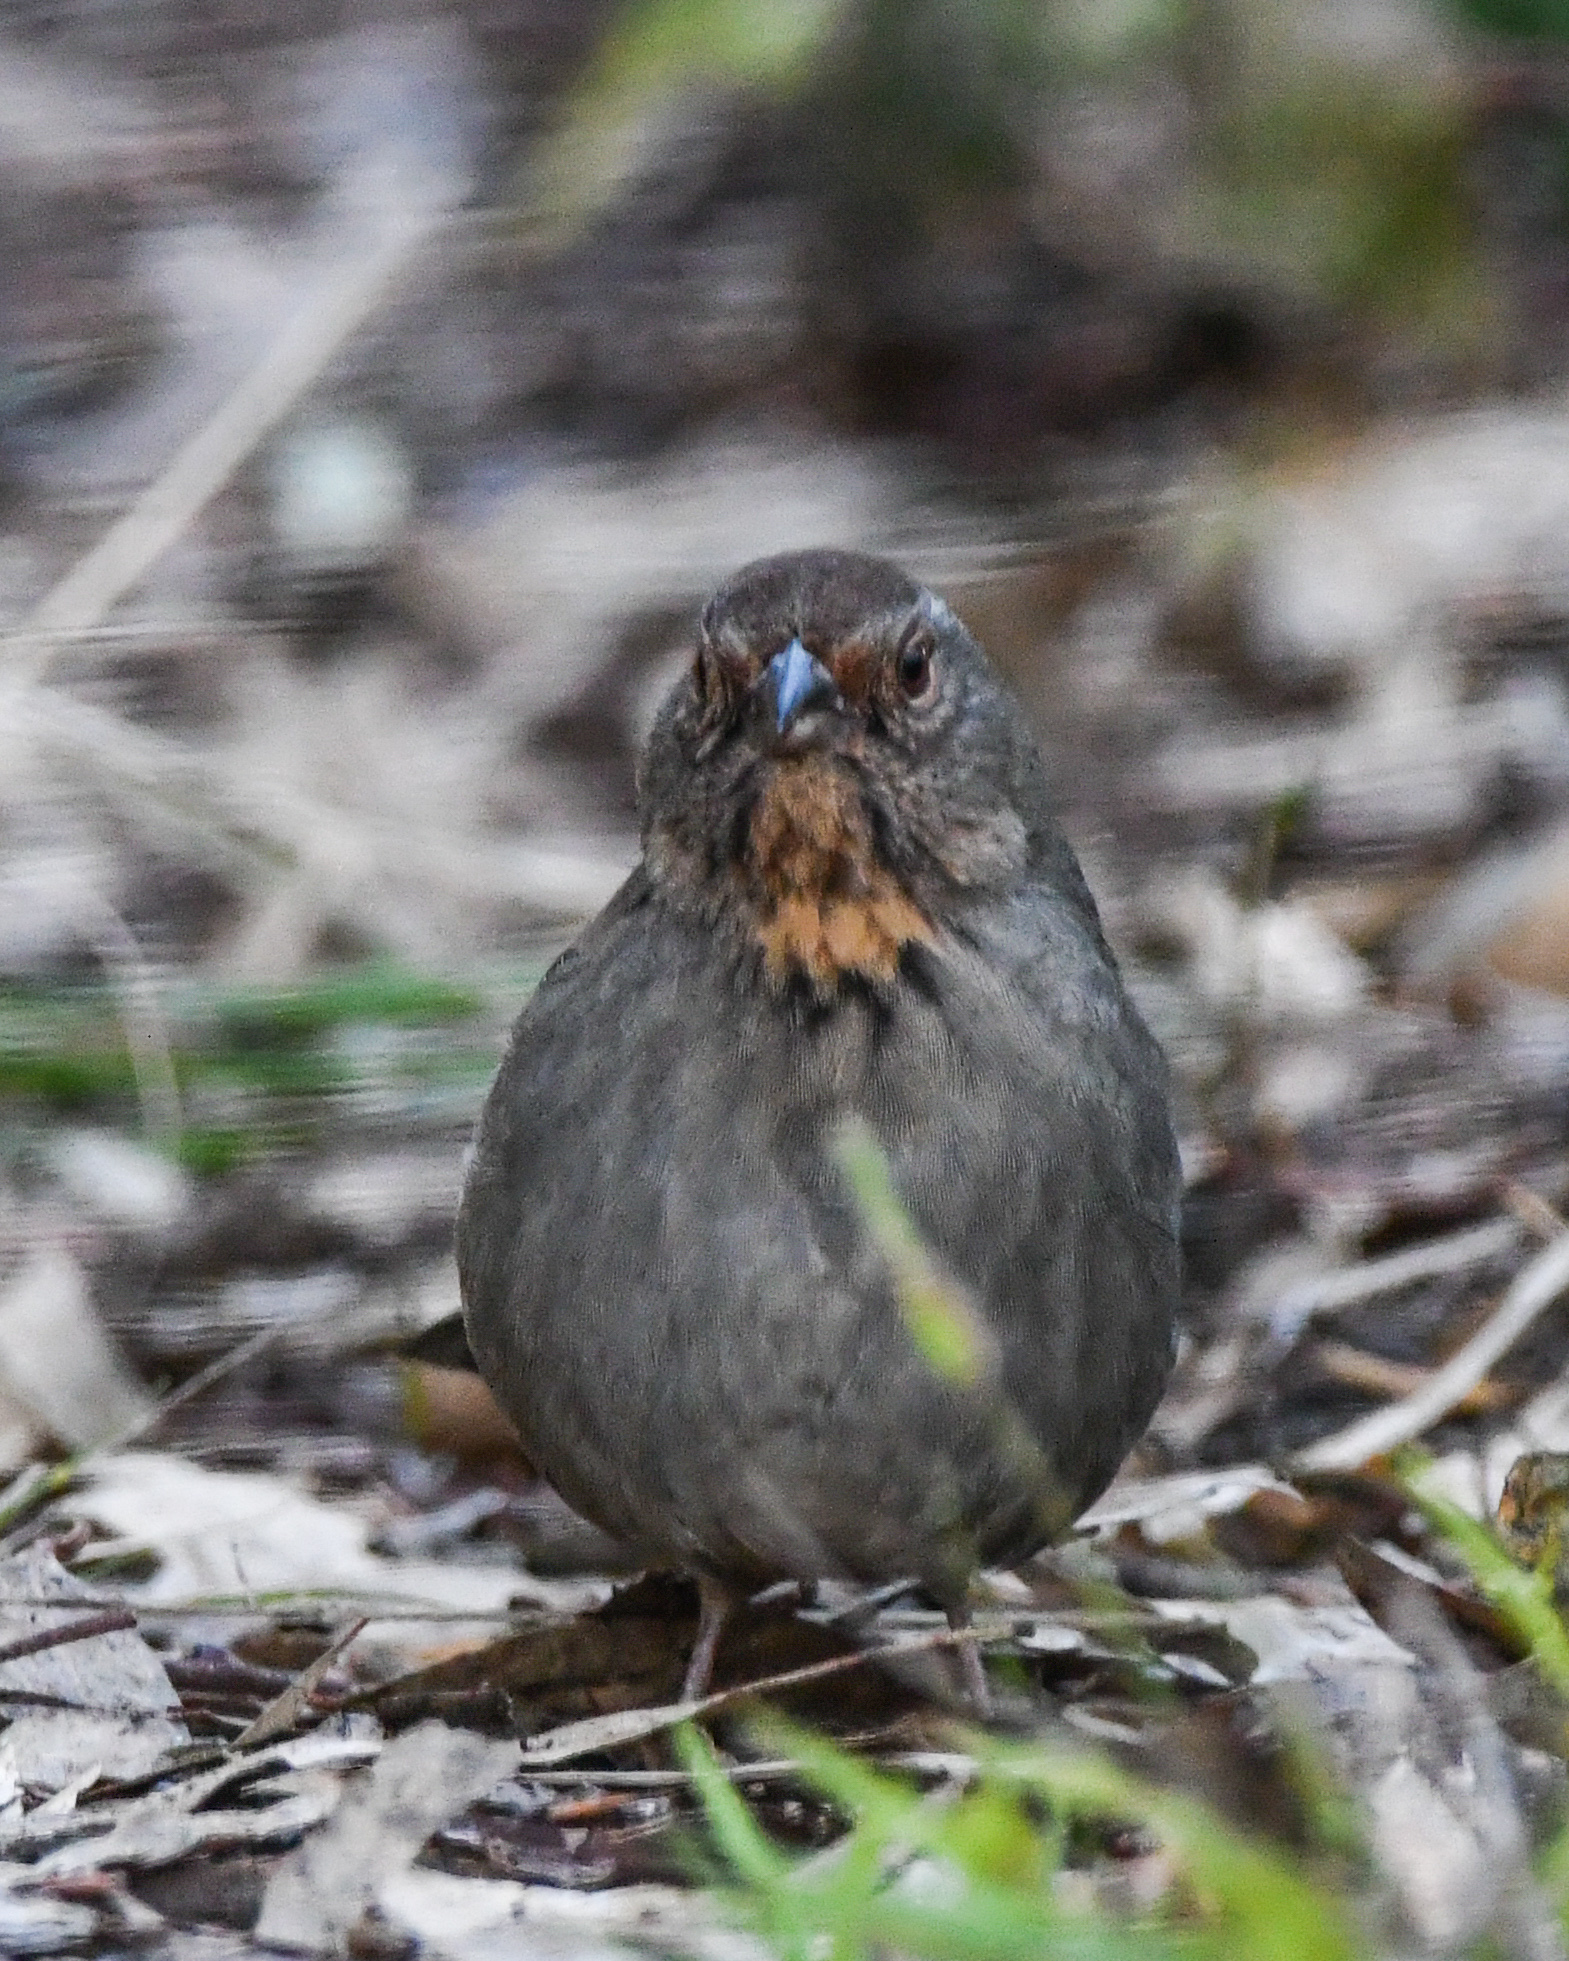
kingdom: Animalia
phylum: Chordata
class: Aves
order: Passeriformes
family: Passerellidae
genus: Melozone
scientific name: Melozone crissalis
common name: California towhee
